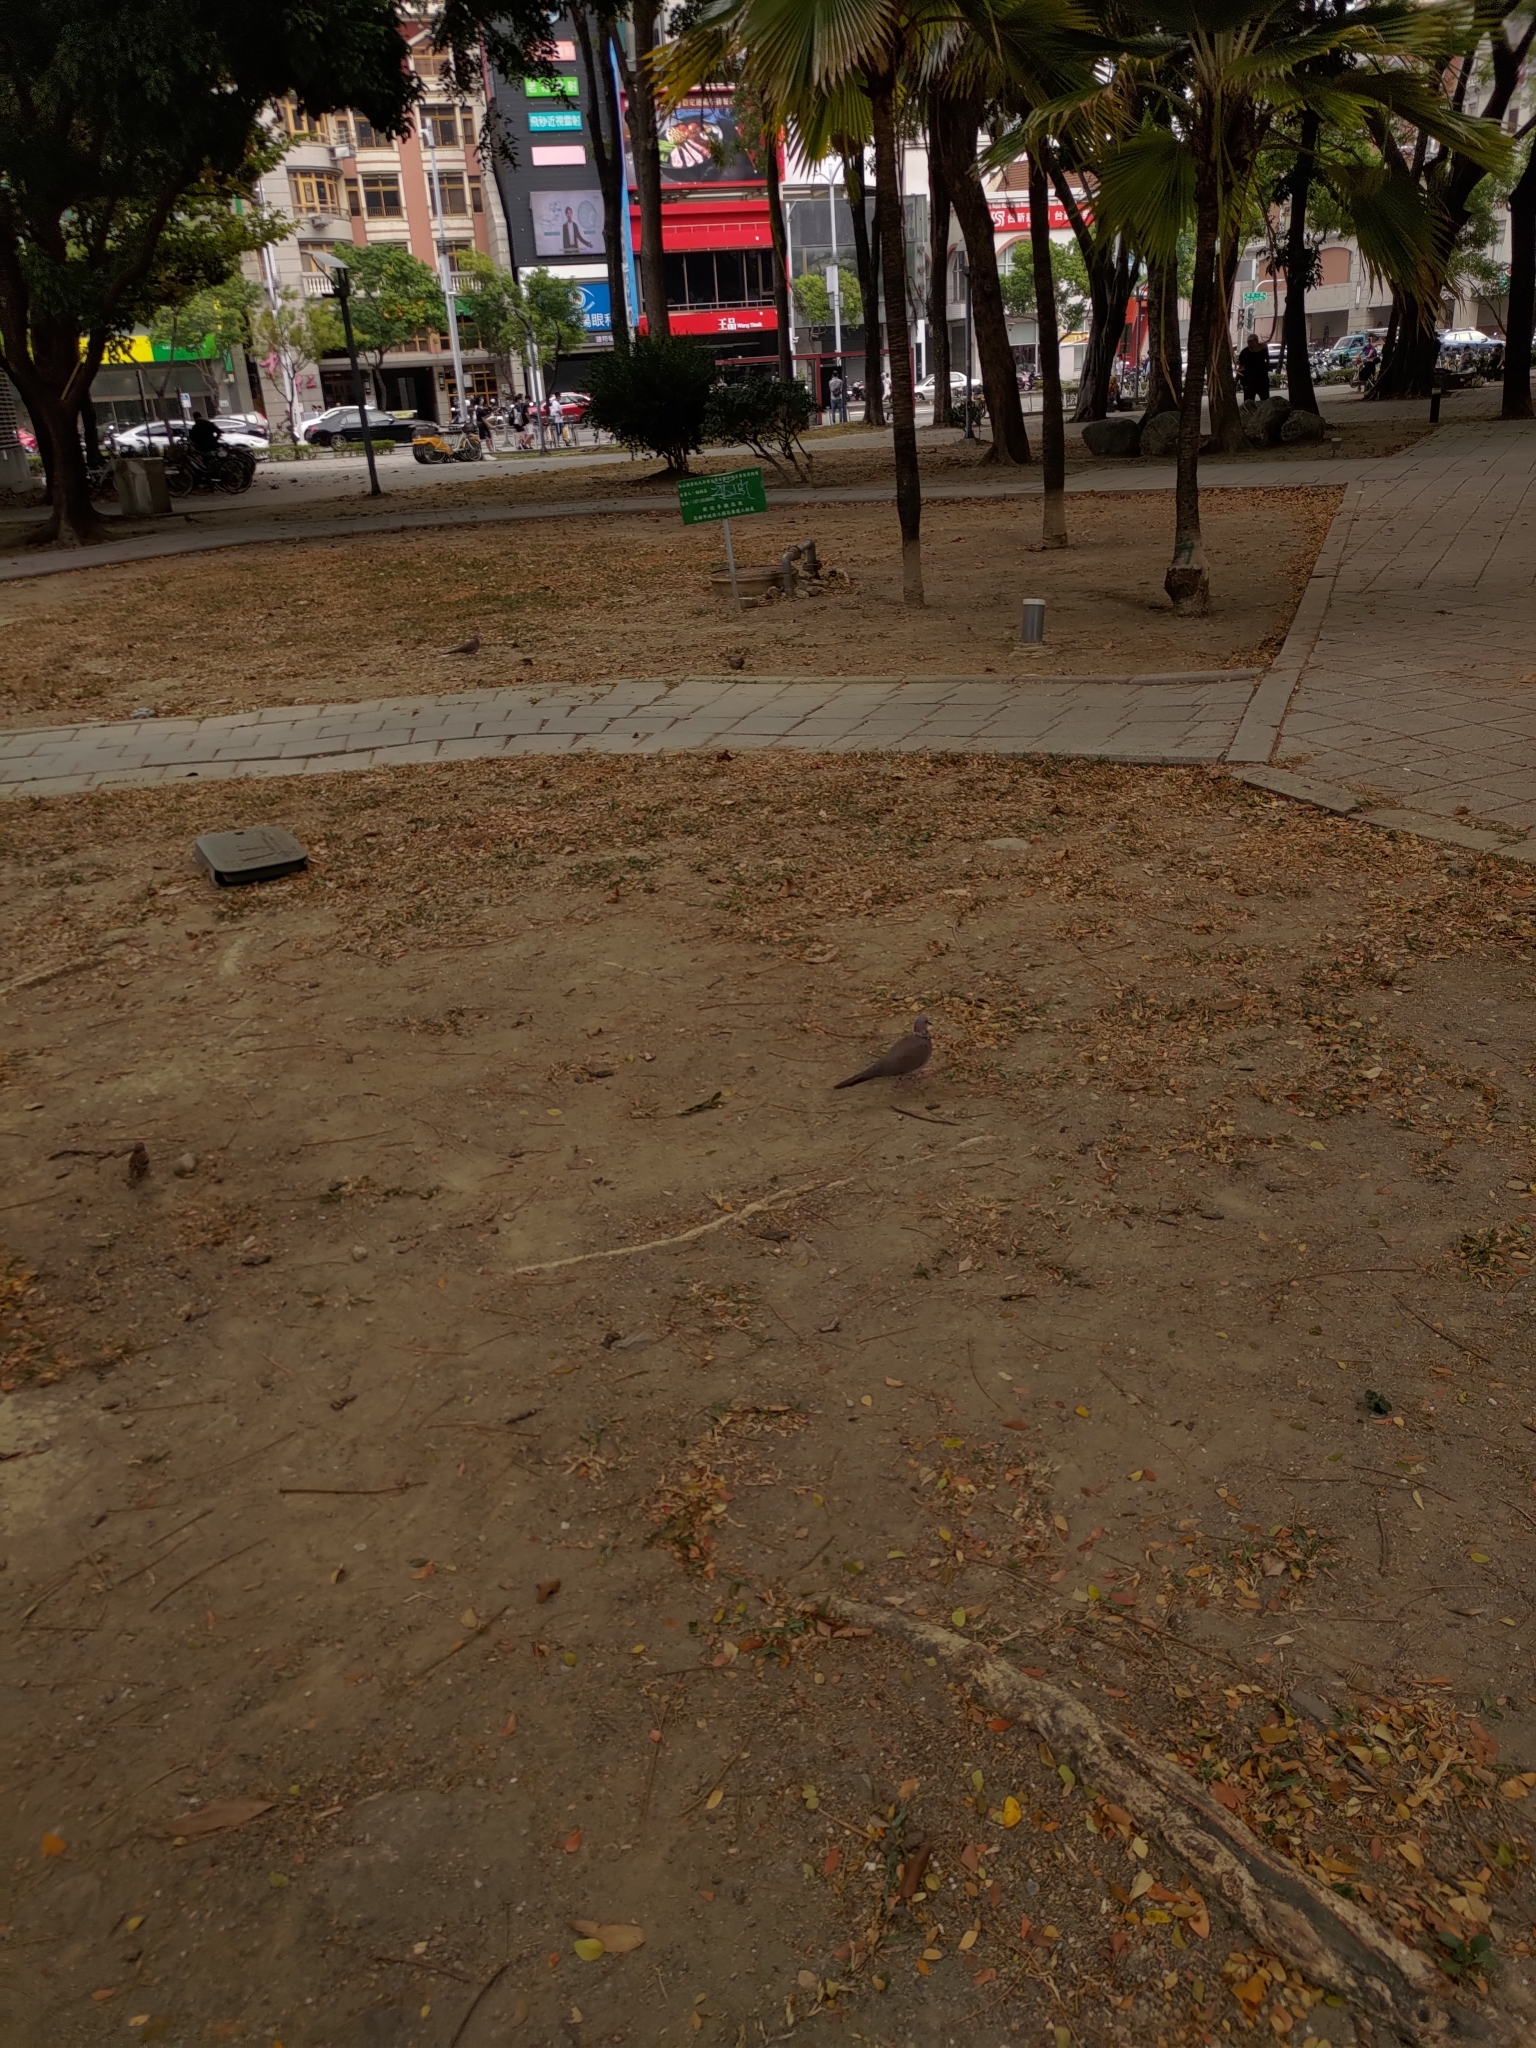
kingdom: Animalia
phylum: Chordata
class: Aves
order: Columbiformes
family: Columbidae
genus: Spilopelia
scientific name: Spilopelia chinensis
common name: Spotted dove
